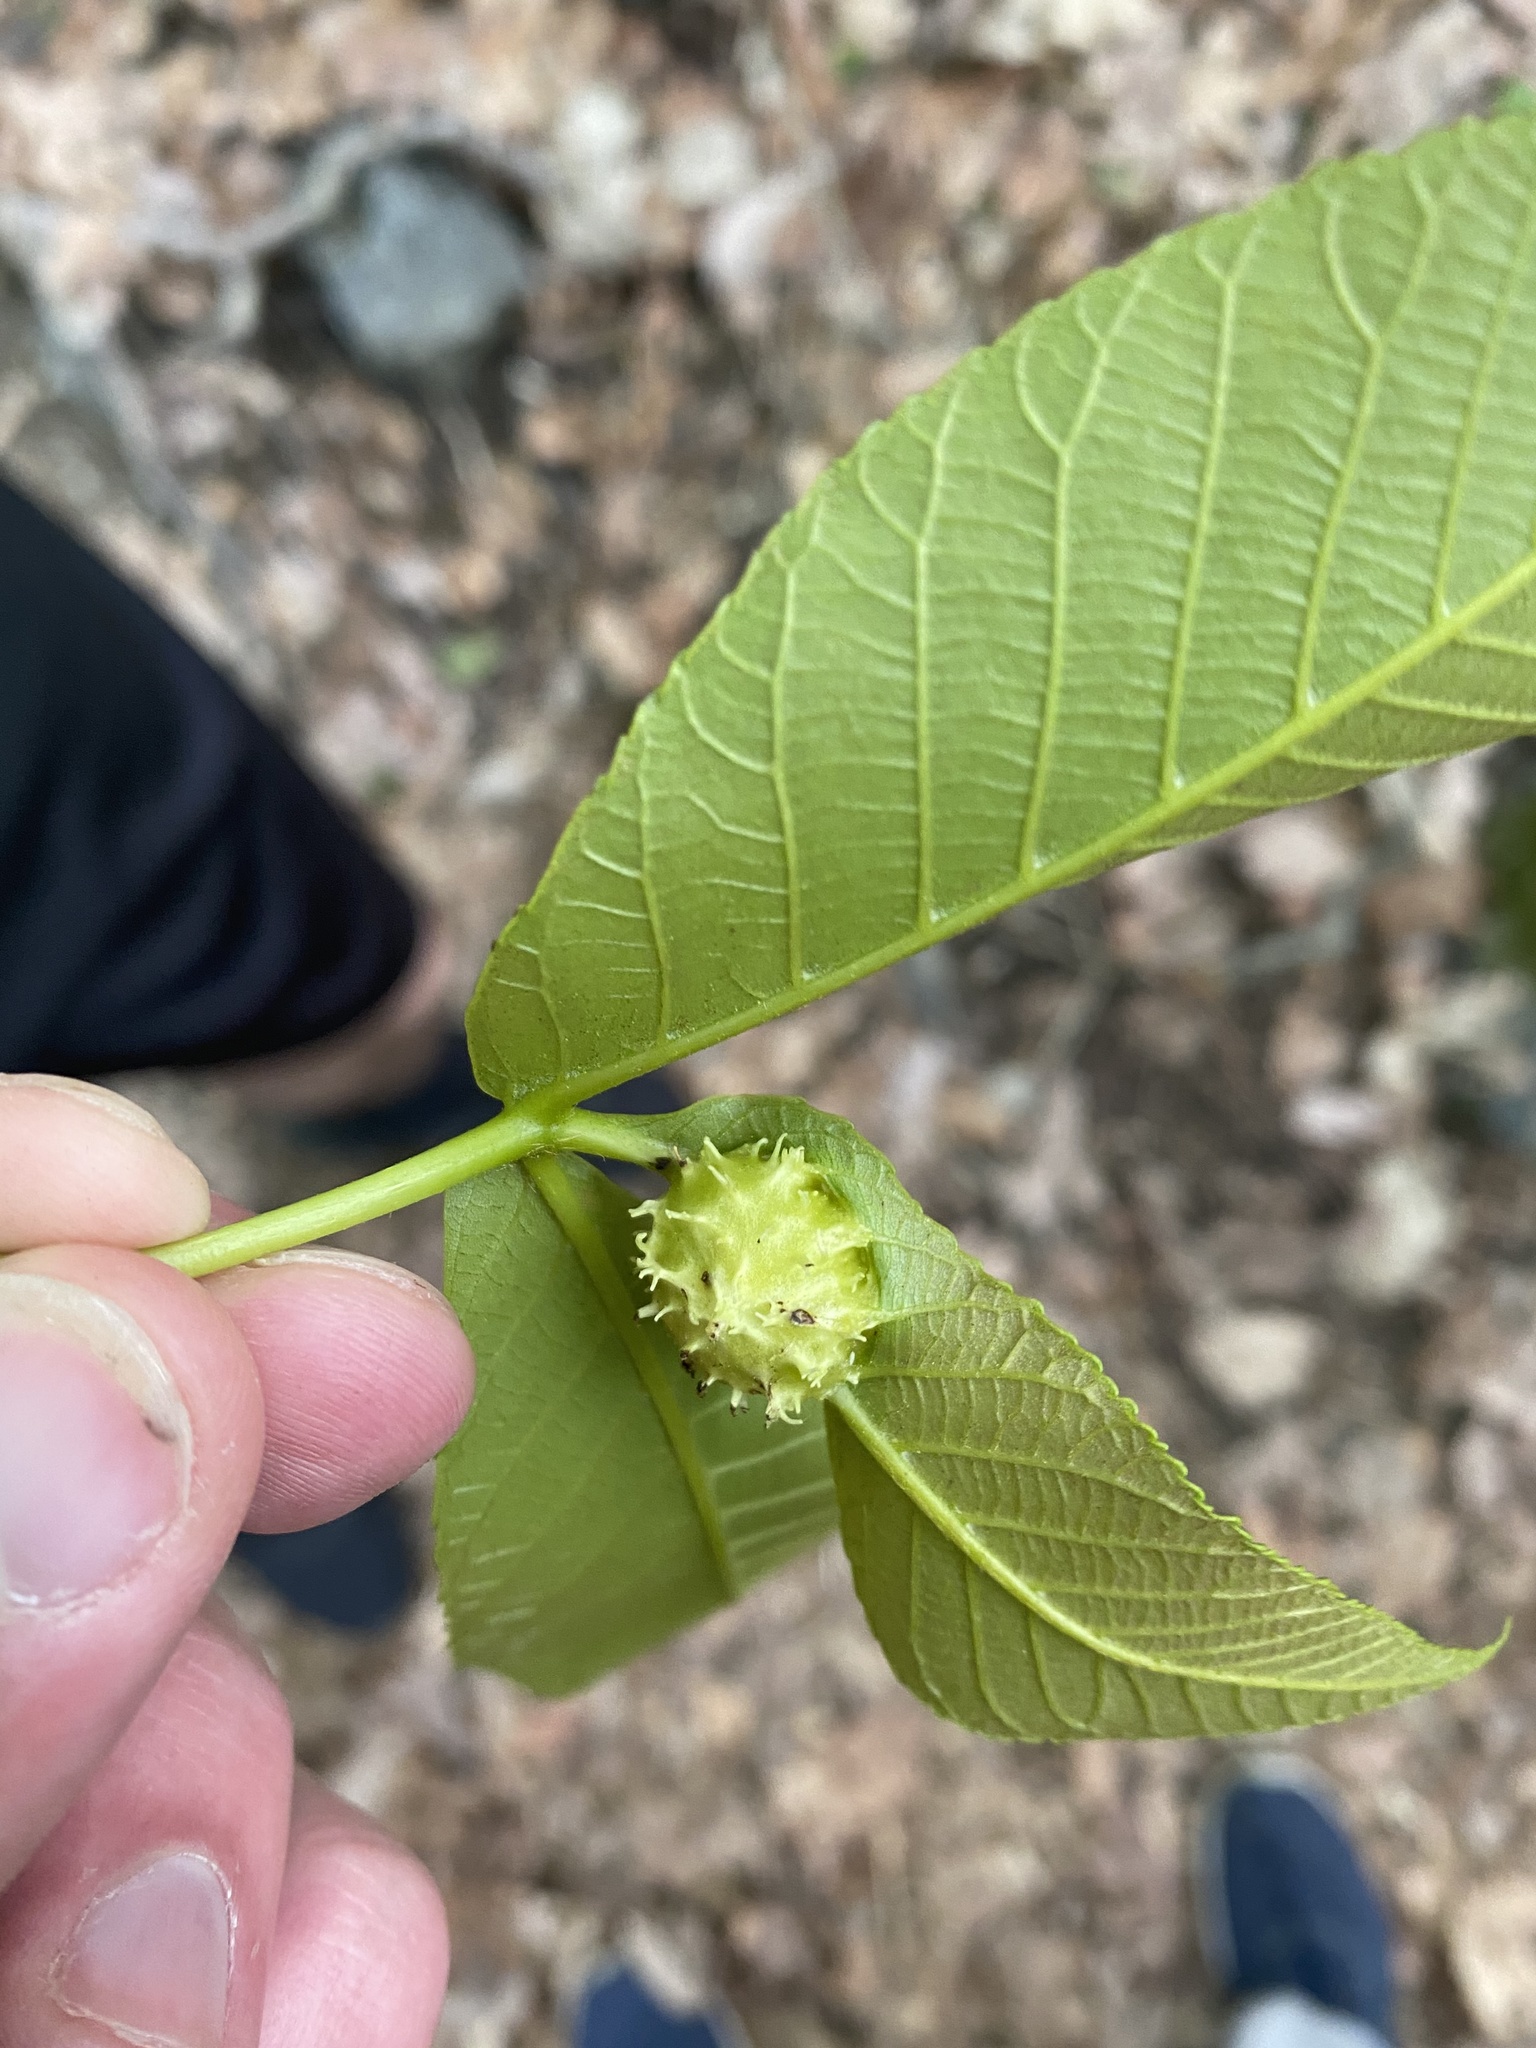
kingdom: Animalia
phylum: Arthropoda
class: Insecta
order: Hemiptera
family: Phylloxeridae
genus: Phylloxera
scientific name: Phylloxera spinosa
